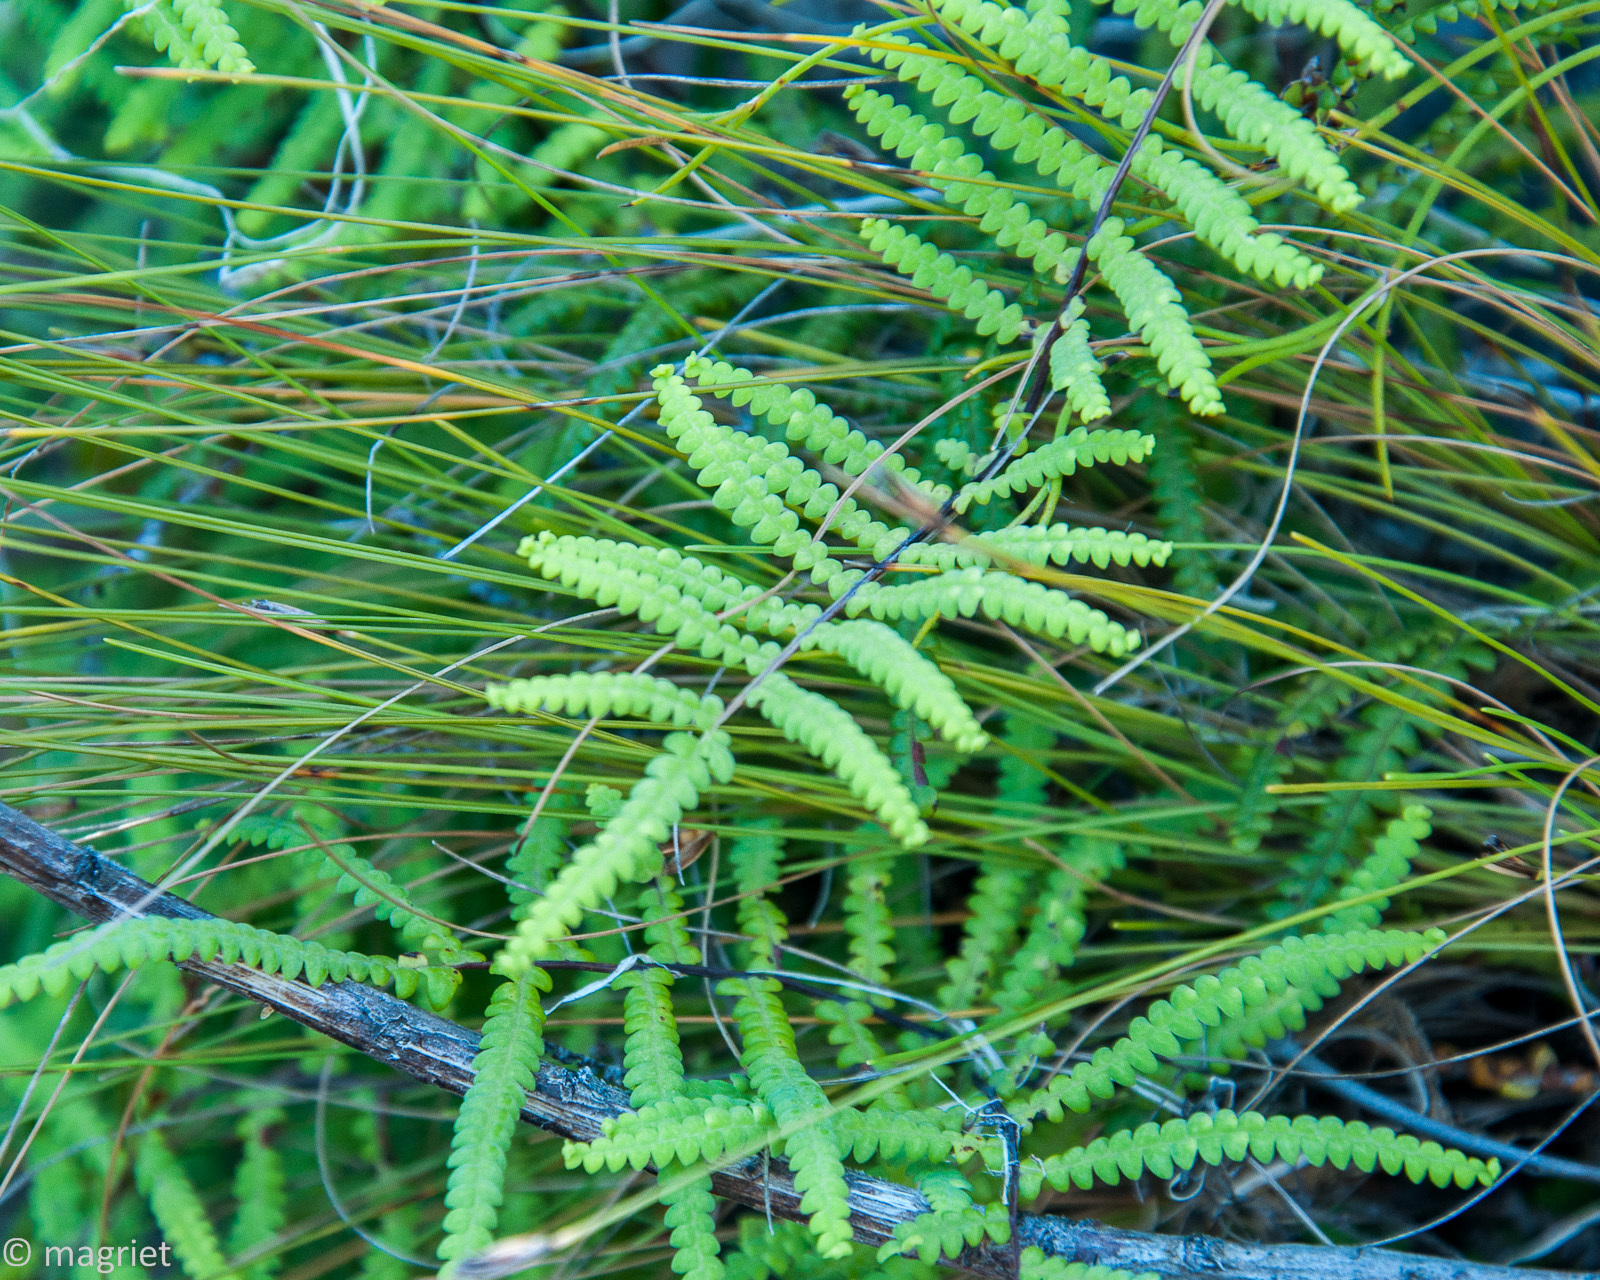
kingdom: Plantae
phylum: Tracheophyta
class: Polypodiopsida
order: Gleicheniales
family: Gleicheniaceae
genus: Gleichenia
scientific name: Gleichenia polypodioides
